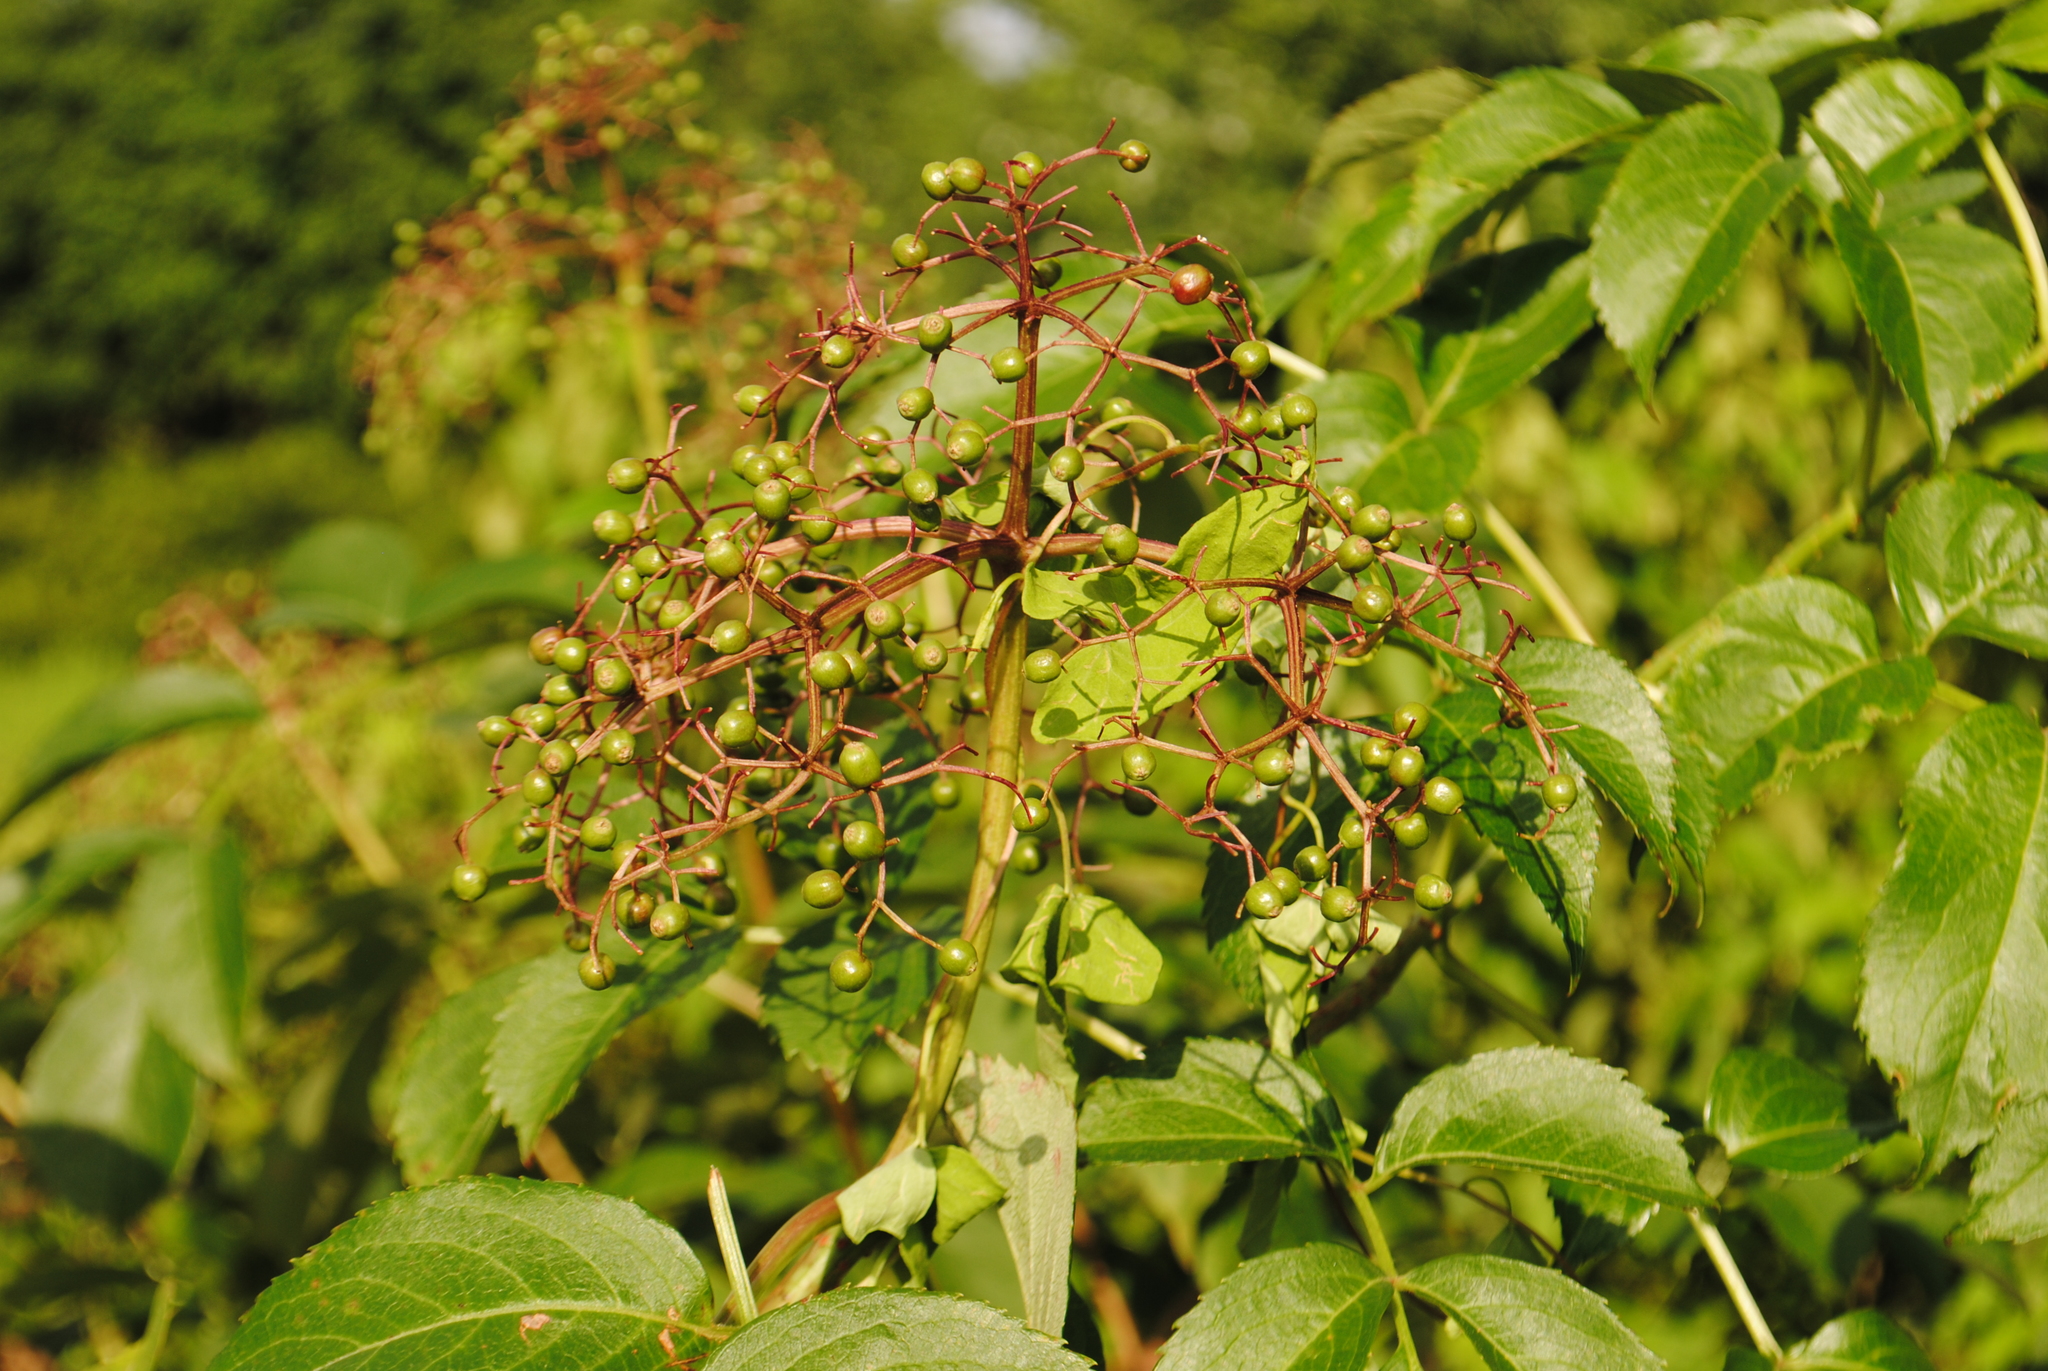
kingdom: Plantae
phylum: Tracheophyta
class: Magnoliopsida
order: Dipsacales
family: Viburnaceae
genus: Sambucus
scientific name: Sambucus canadensis
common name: American elder
